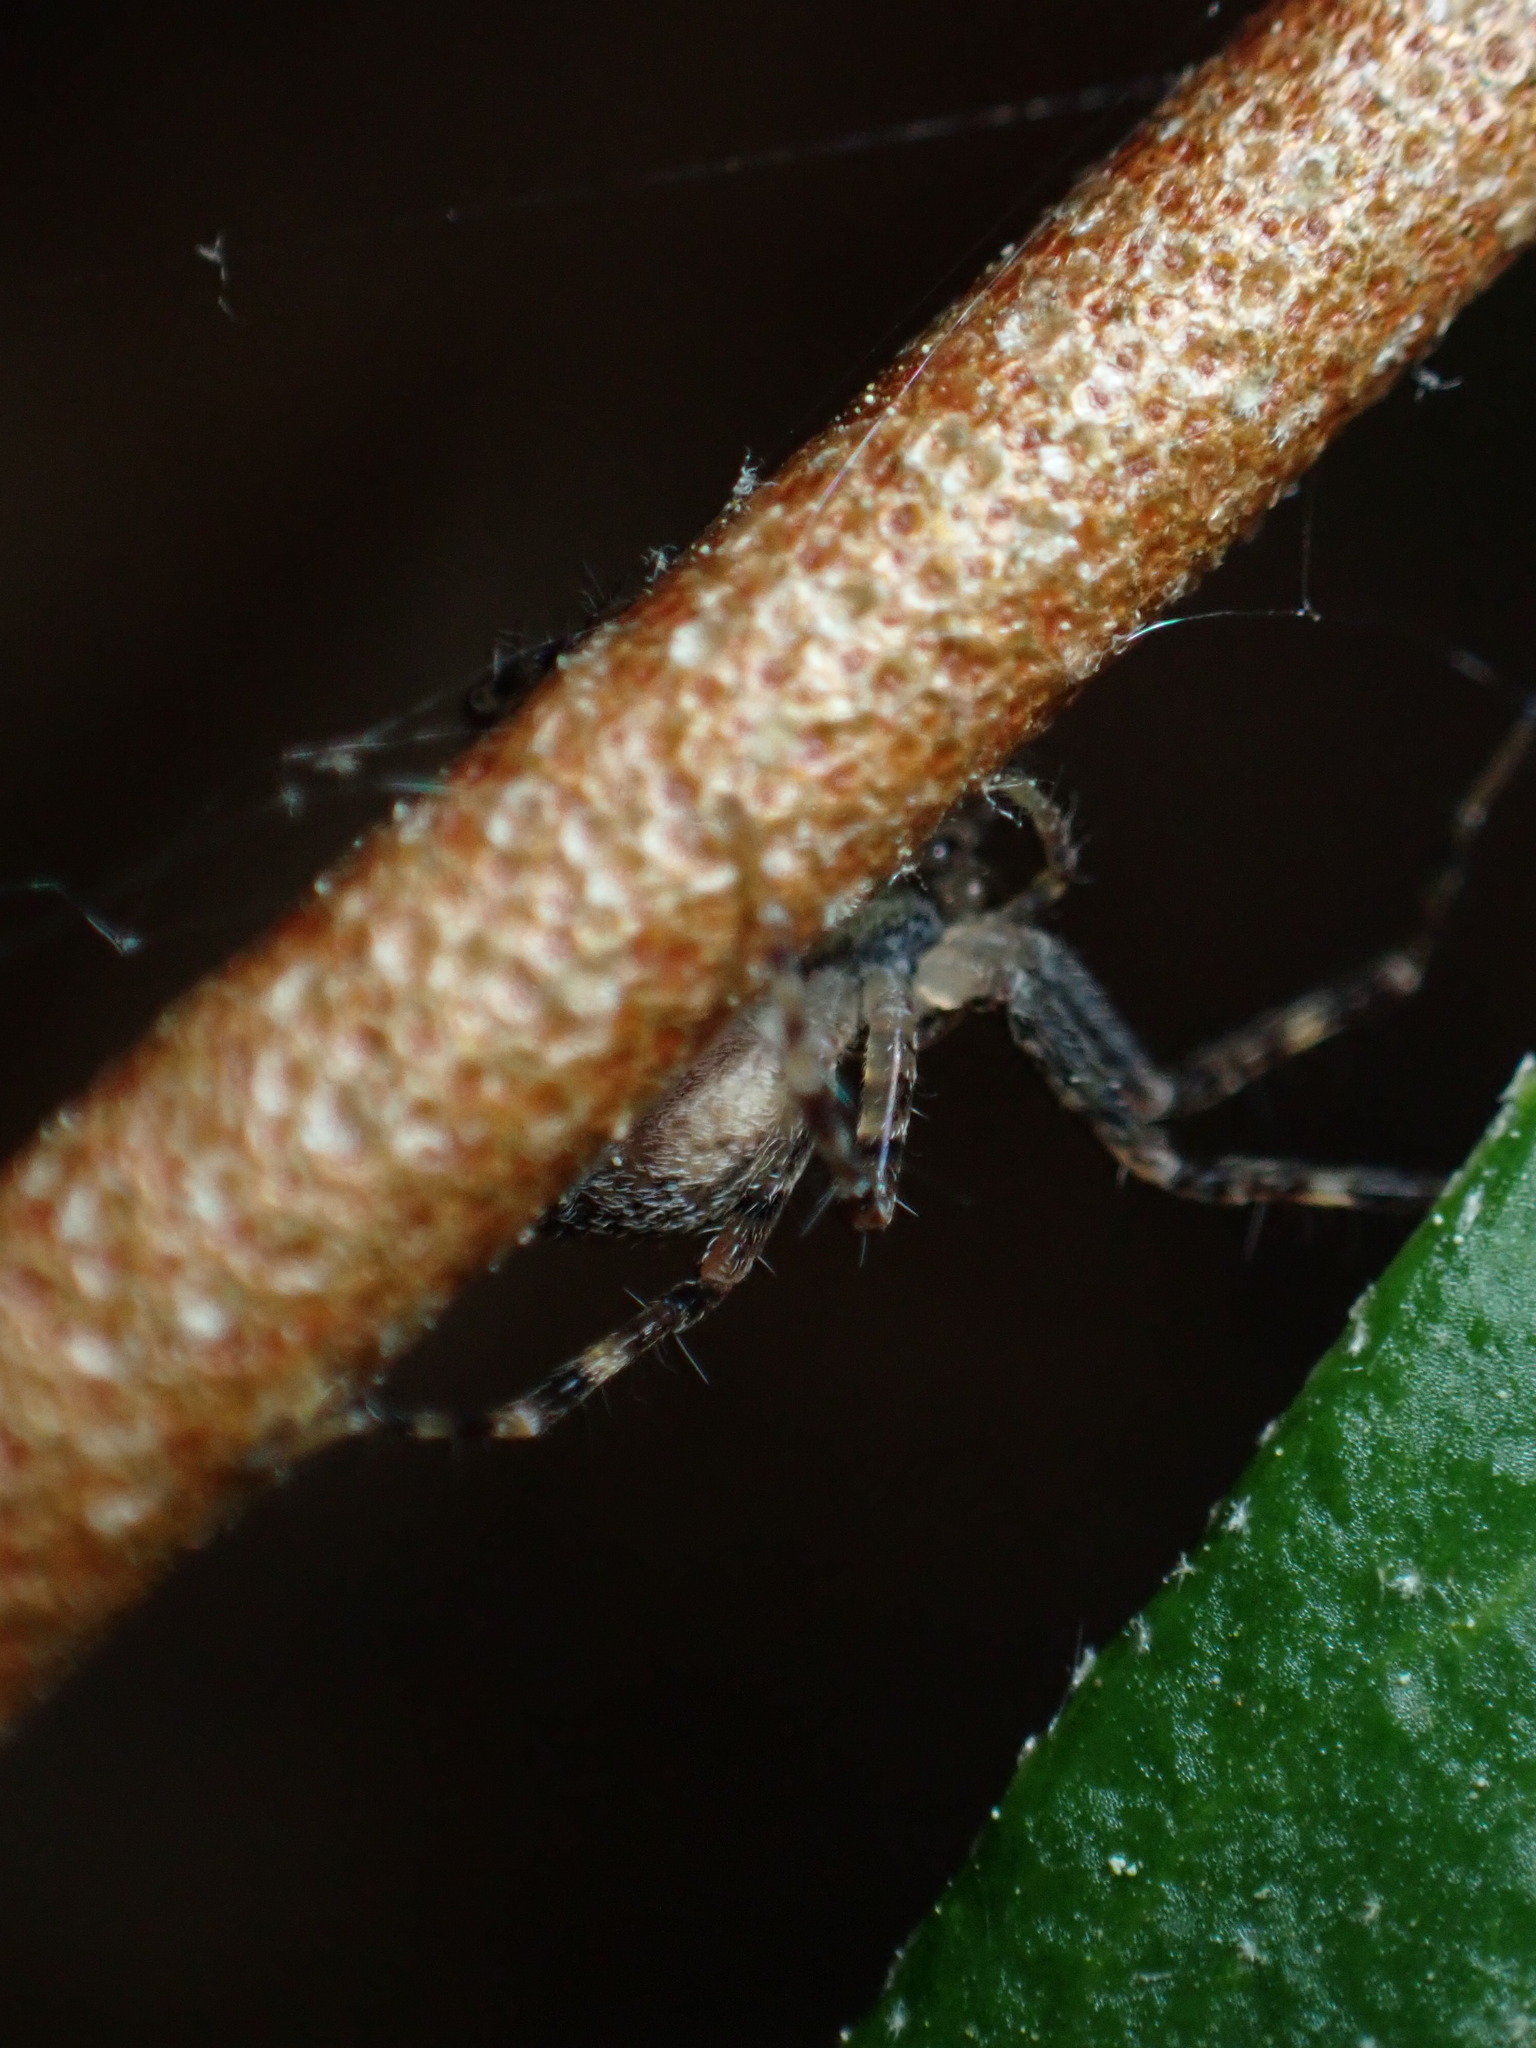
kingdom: Animalia
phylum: Arthropoda
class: Arachnida
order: Araneae
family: Pisauridae
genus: Dolomedes
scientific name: Dolomedes tenebrosus
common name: Dark fishing spider
